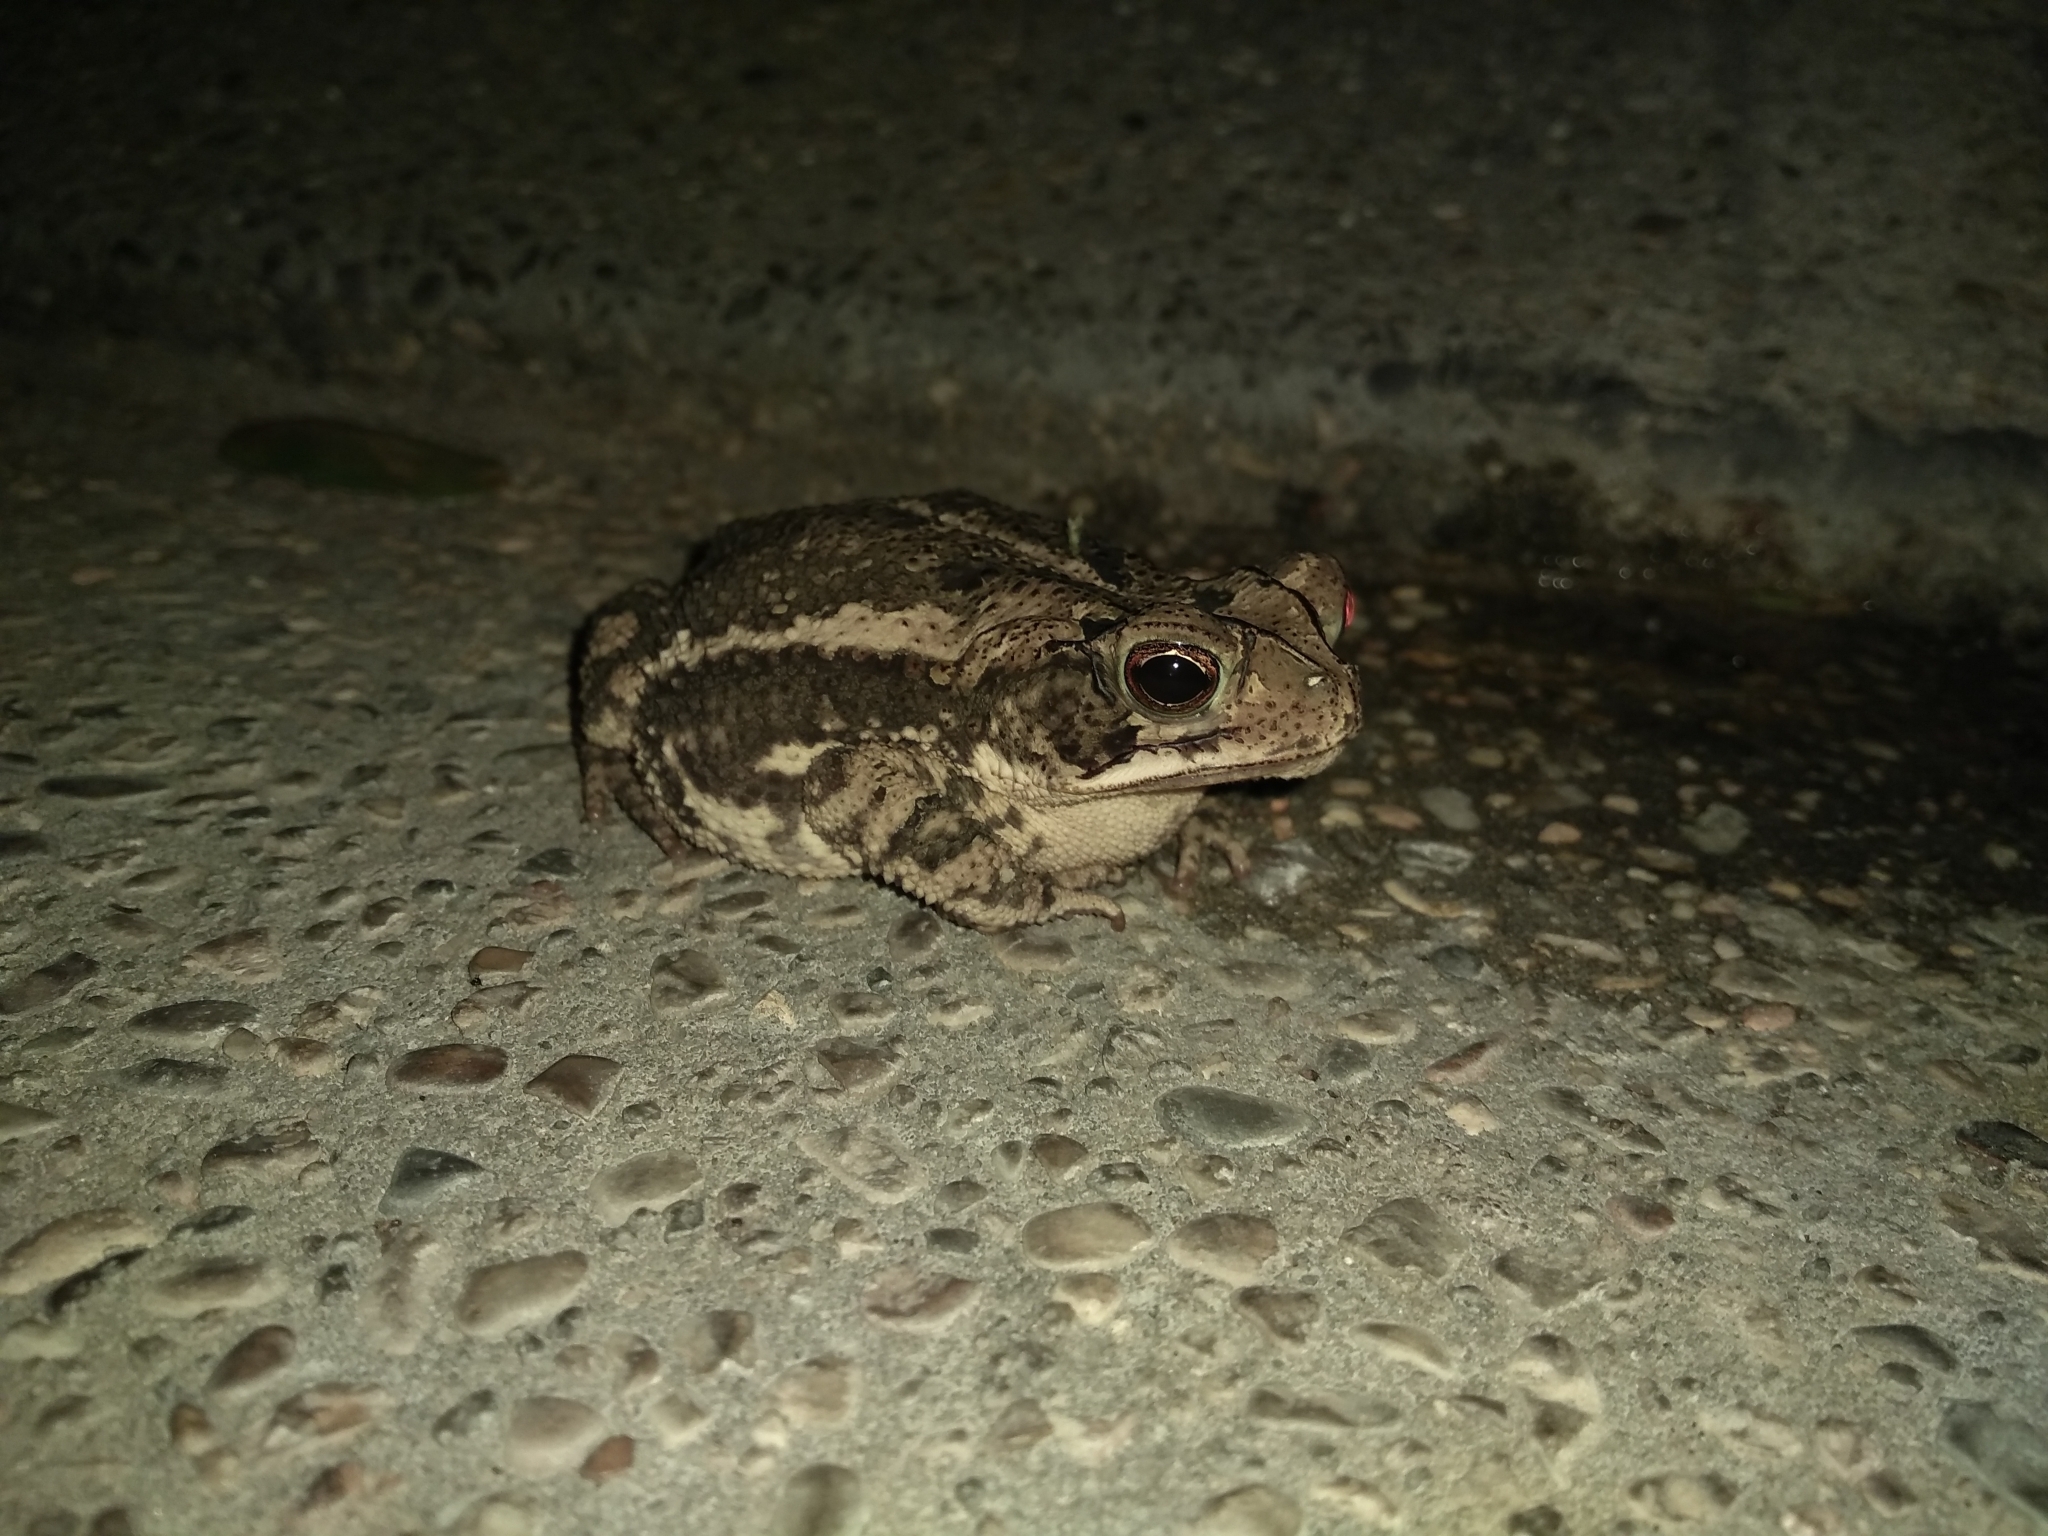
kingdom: Animalia
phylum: Chordata
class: Amphibia
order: Anura
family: Bufonidae
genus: Incilius
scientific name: Incilius nebulifer
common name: Gulf coast toad
